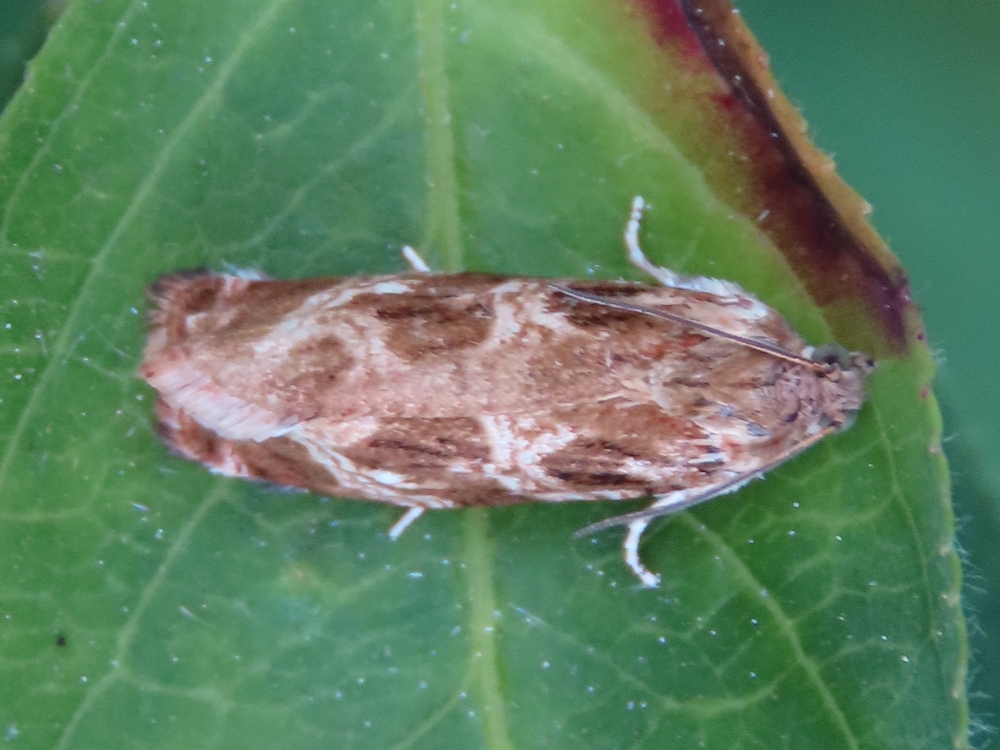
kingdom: Animalia
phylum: Arthropoda
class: Insecta
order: Lepidoptera
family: Tortricidae
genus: Phaecasiophora
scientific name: Phaecasiophora confixana
